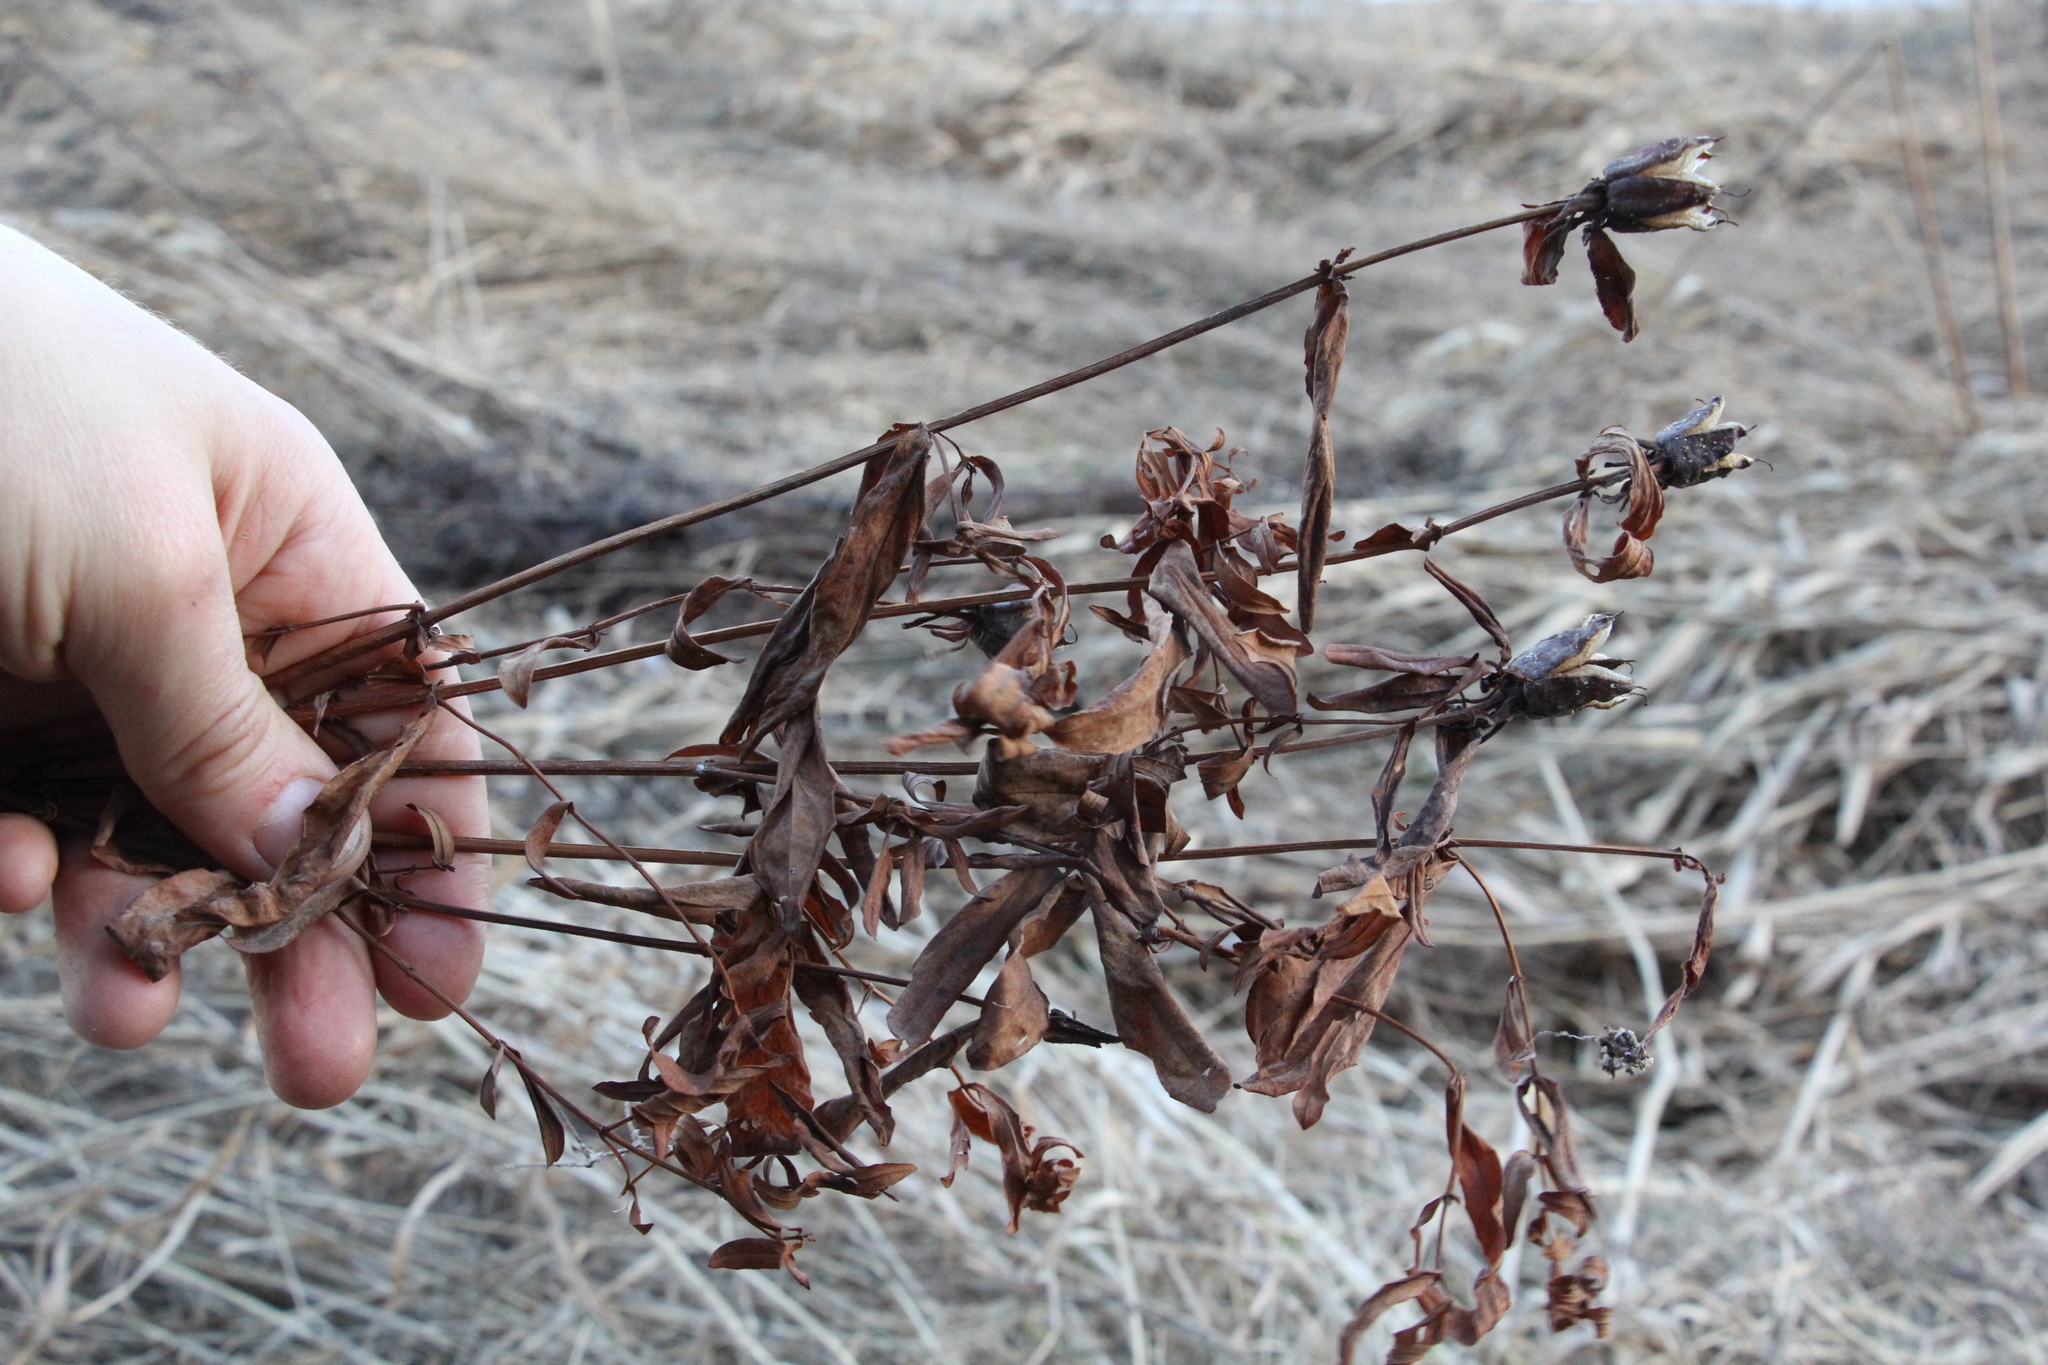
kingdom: Plantae
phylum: Tracheophyta
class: Magnoliopsida
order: Malpighiales
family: Hypericaceae
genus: Hypericum
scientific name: Hypericum ascyron
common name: Giant st. john's-wort
